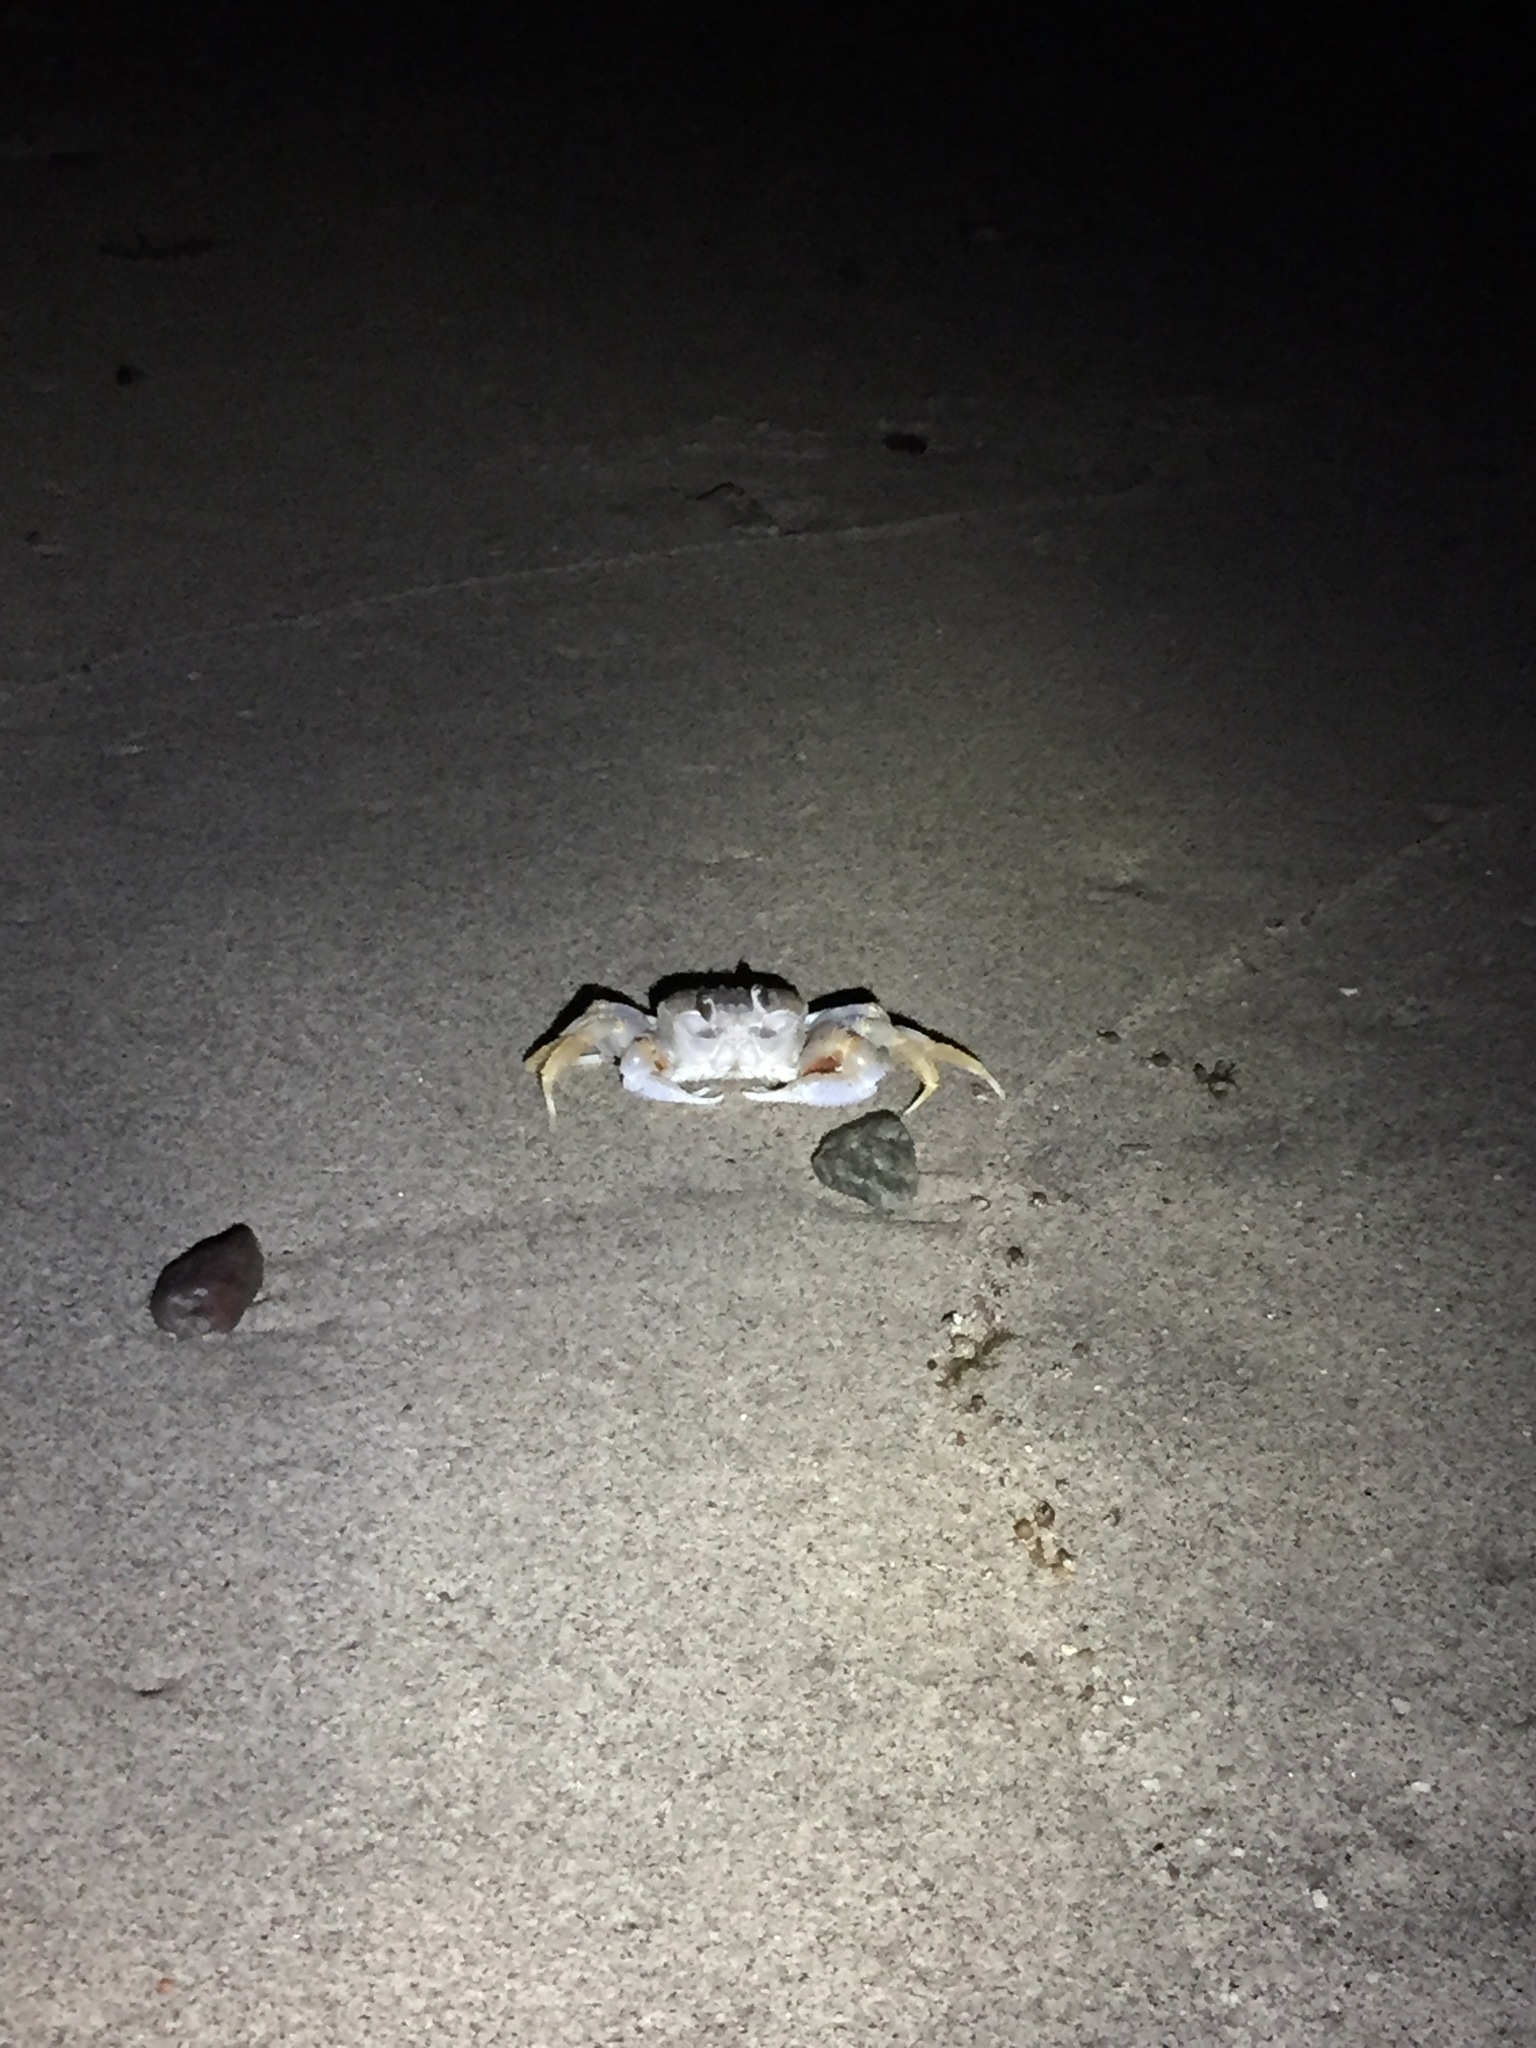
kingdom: Animalia
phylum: Arthropoda
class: Malacostraca
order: Decapoda
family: Ocypodidae
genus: Ocypode
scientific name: Ocypode occidentalis
